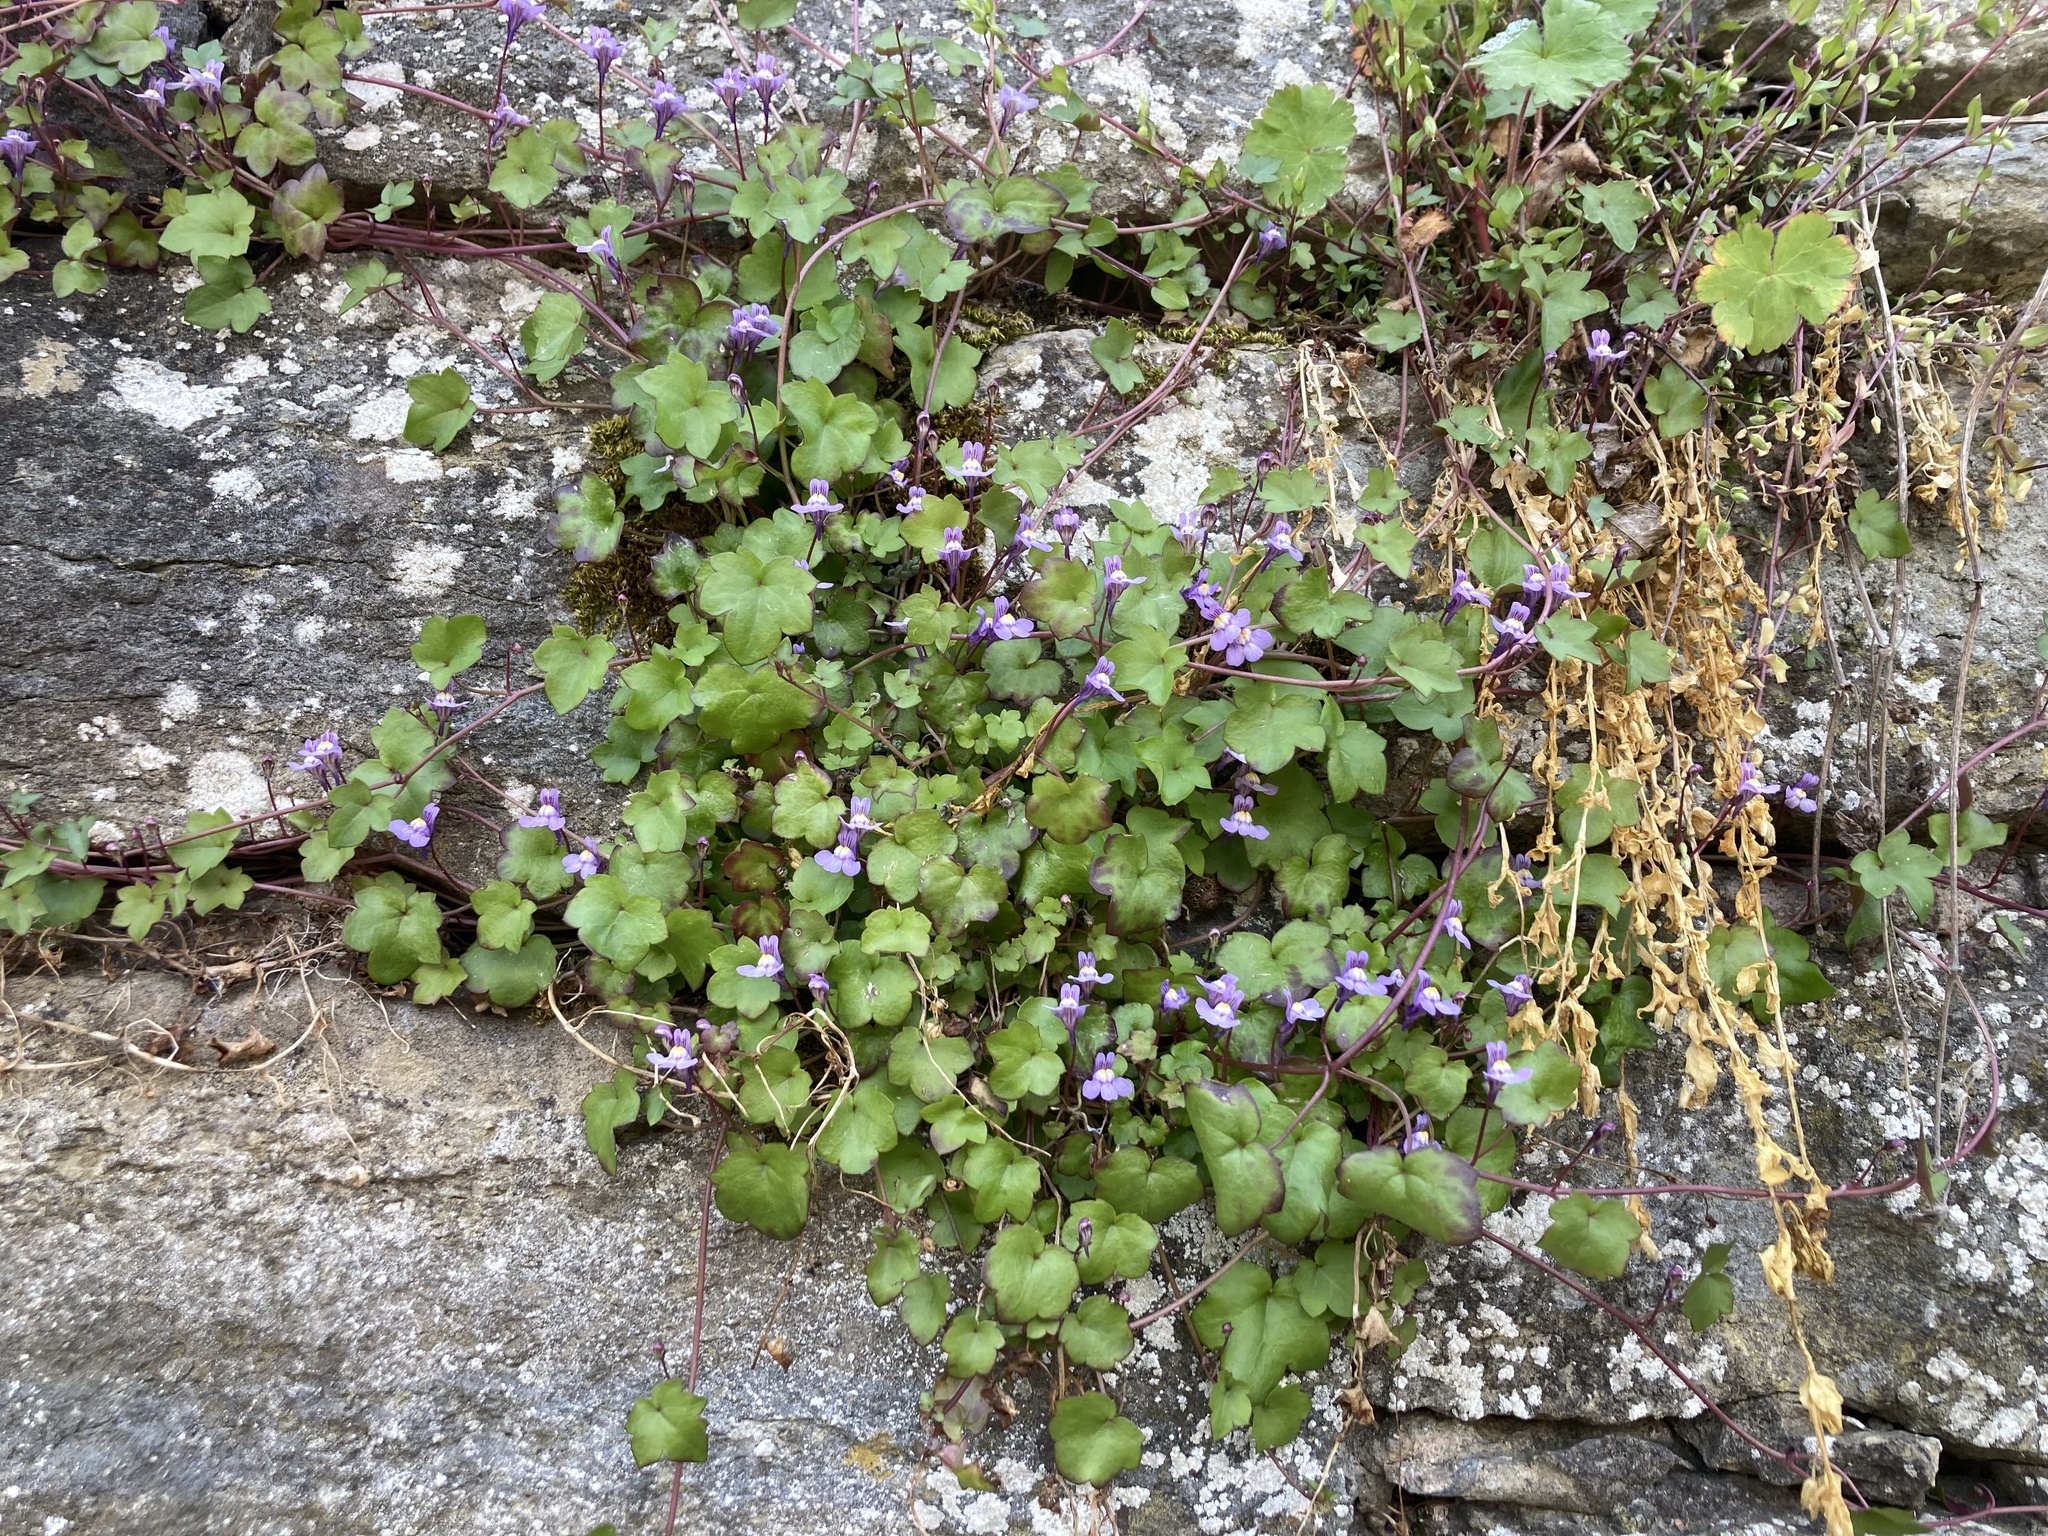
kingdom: Plantae
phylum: Tracheophyta
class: Magnoliopsida
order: Lamiales
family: Plantaginaceae
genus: Cymbalaria
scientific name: Cymbalaria muralis
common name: Ivy-leaved toadflax
